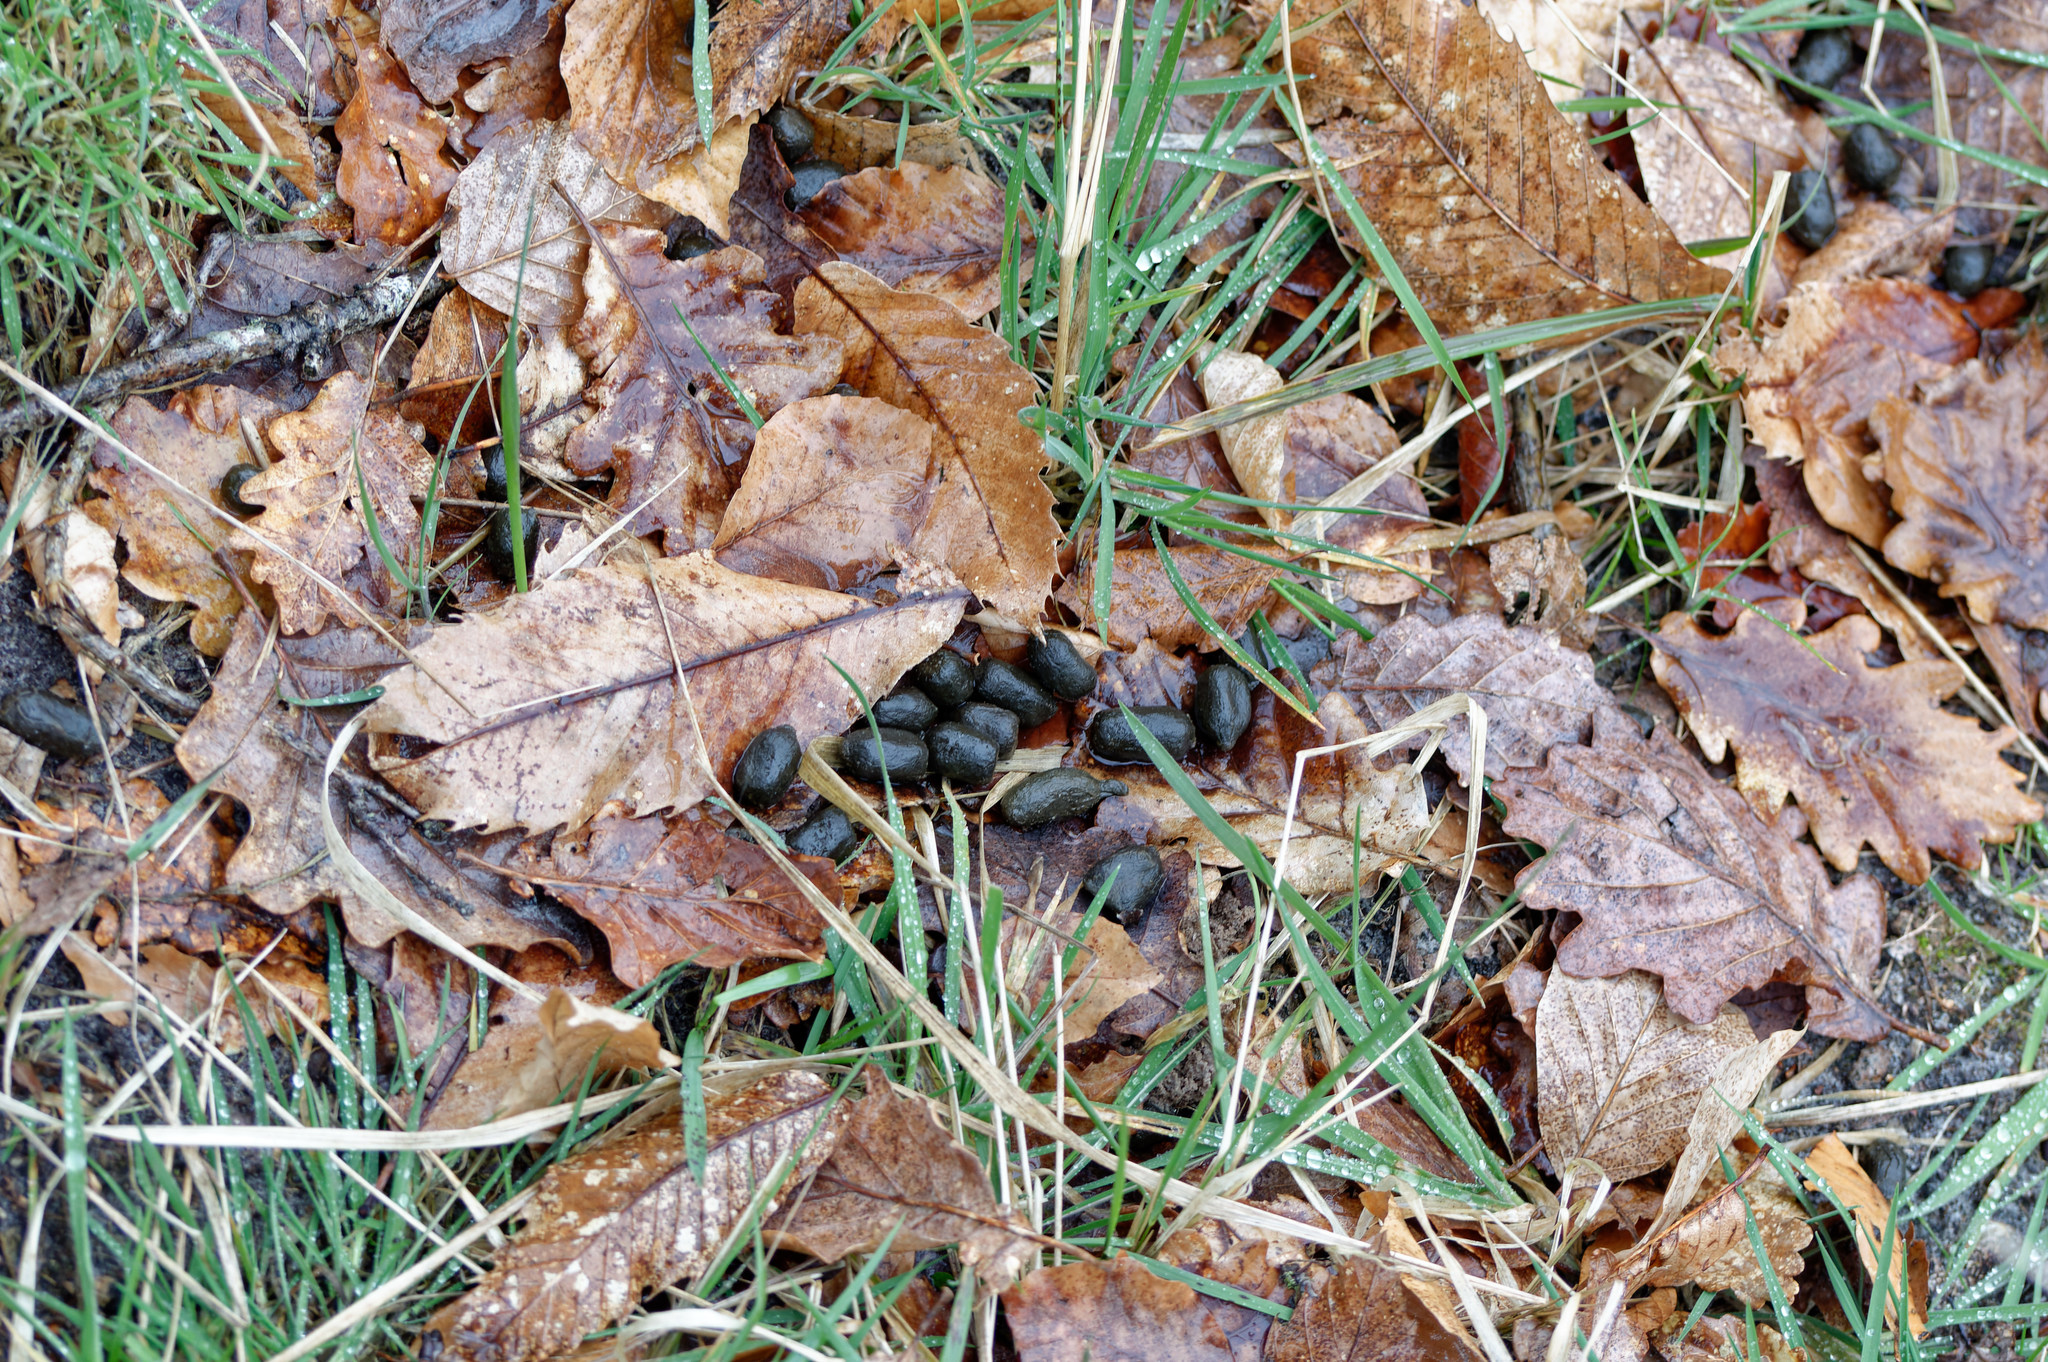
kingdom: Animalia
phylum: Chordata
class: Mammalia
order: Artiodactyla
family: Cervidae
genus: Capreolus
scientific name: Capreolus capreolus
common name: Western roe deer
